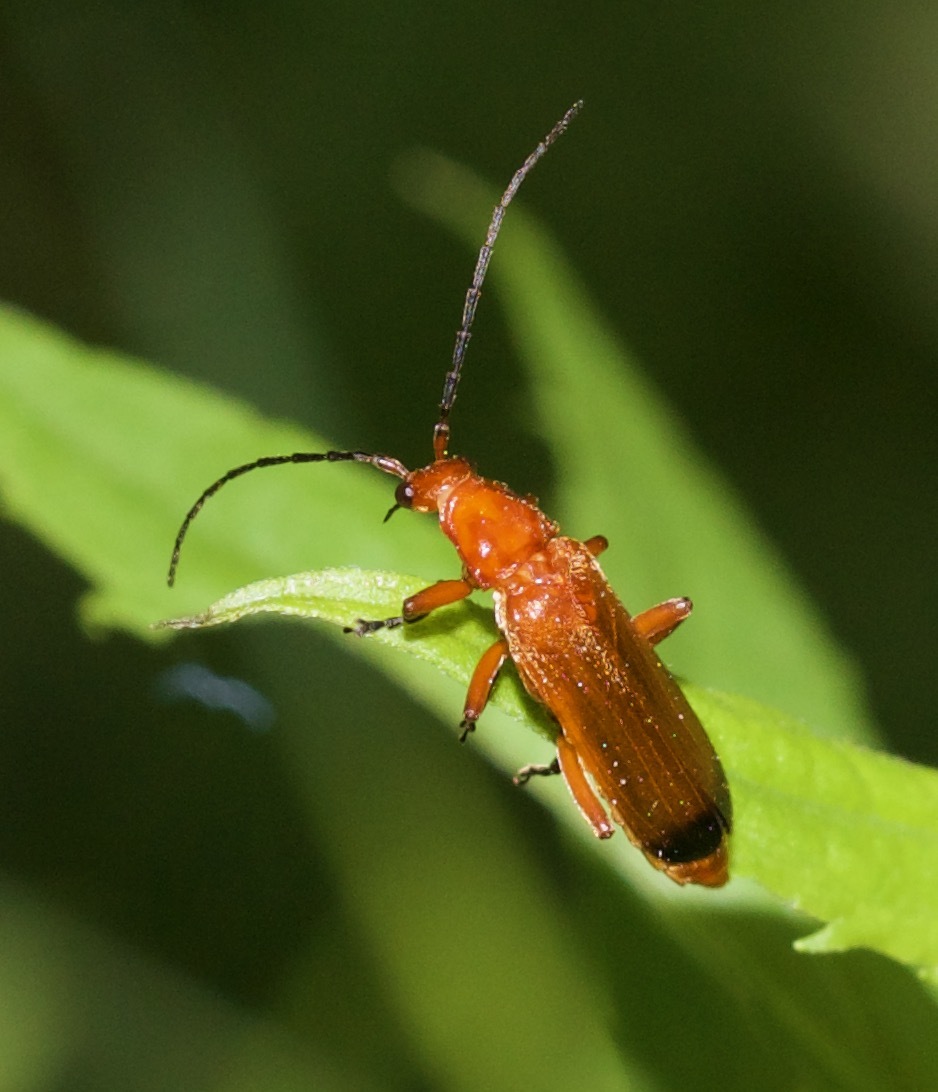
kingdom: Animalia
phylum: Arthropoda
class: Insecta
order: Coleoptera
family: Cantharidae
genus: Rhagonycha
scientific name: Rhagonycha fulva
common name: Common red soldier beetle
